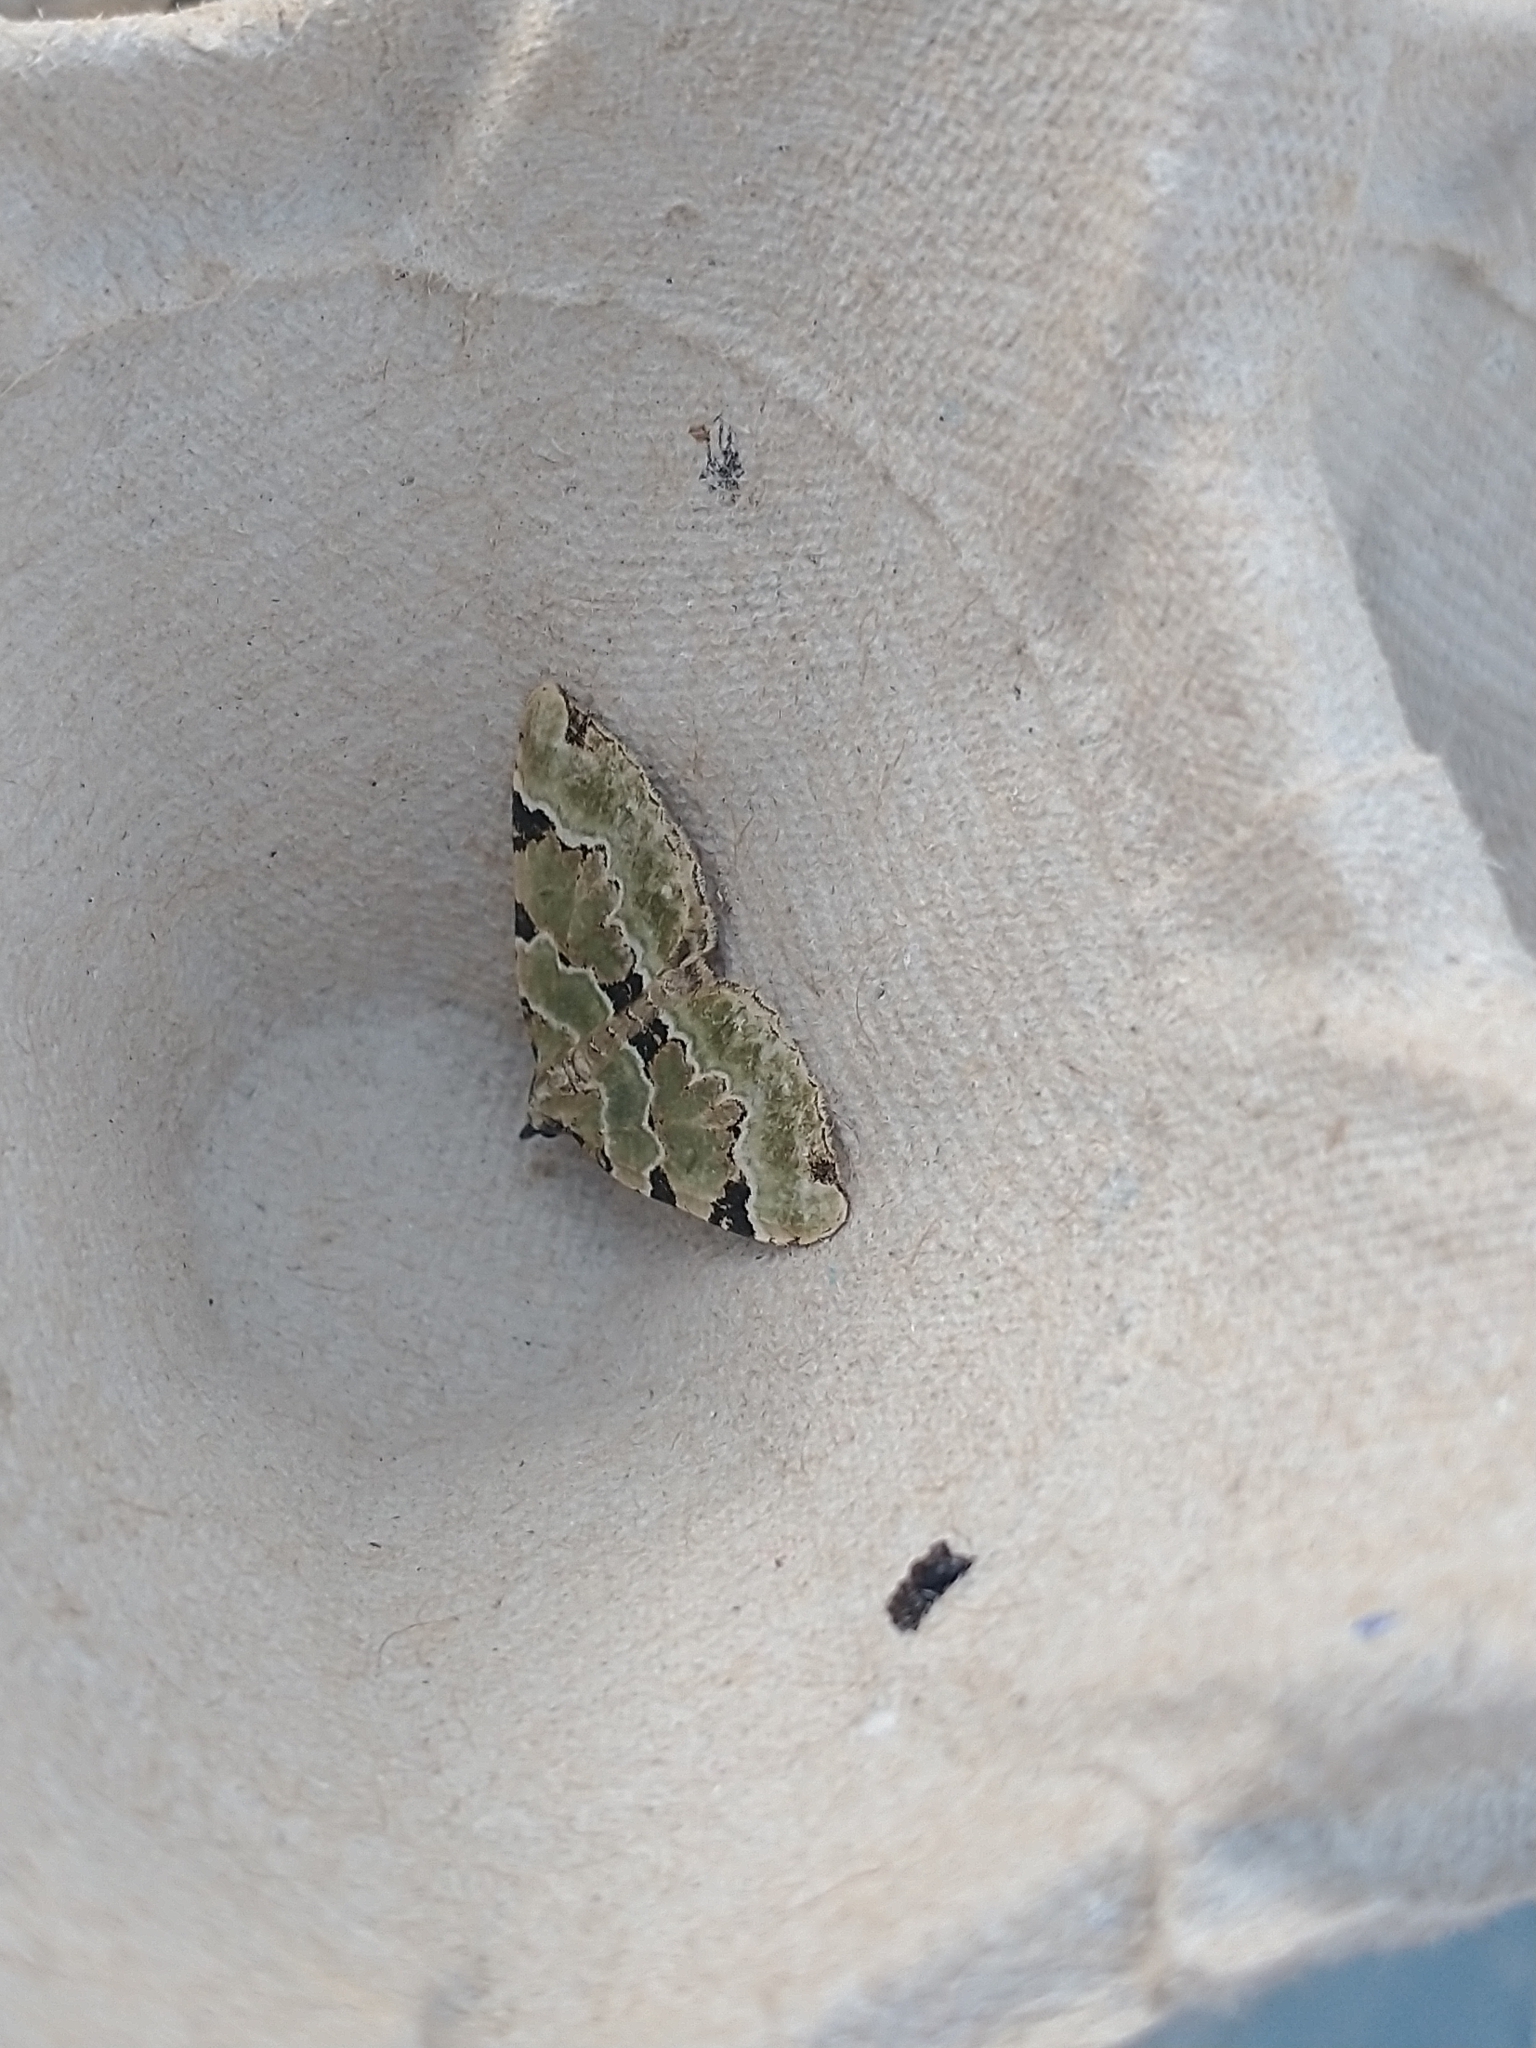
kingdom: Animalia
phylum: Arthropoda
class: Insecta
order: Lepidoptera
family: Geometridae
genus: Colostygia
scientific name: Colostygia pectinataria
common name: Green carpet
